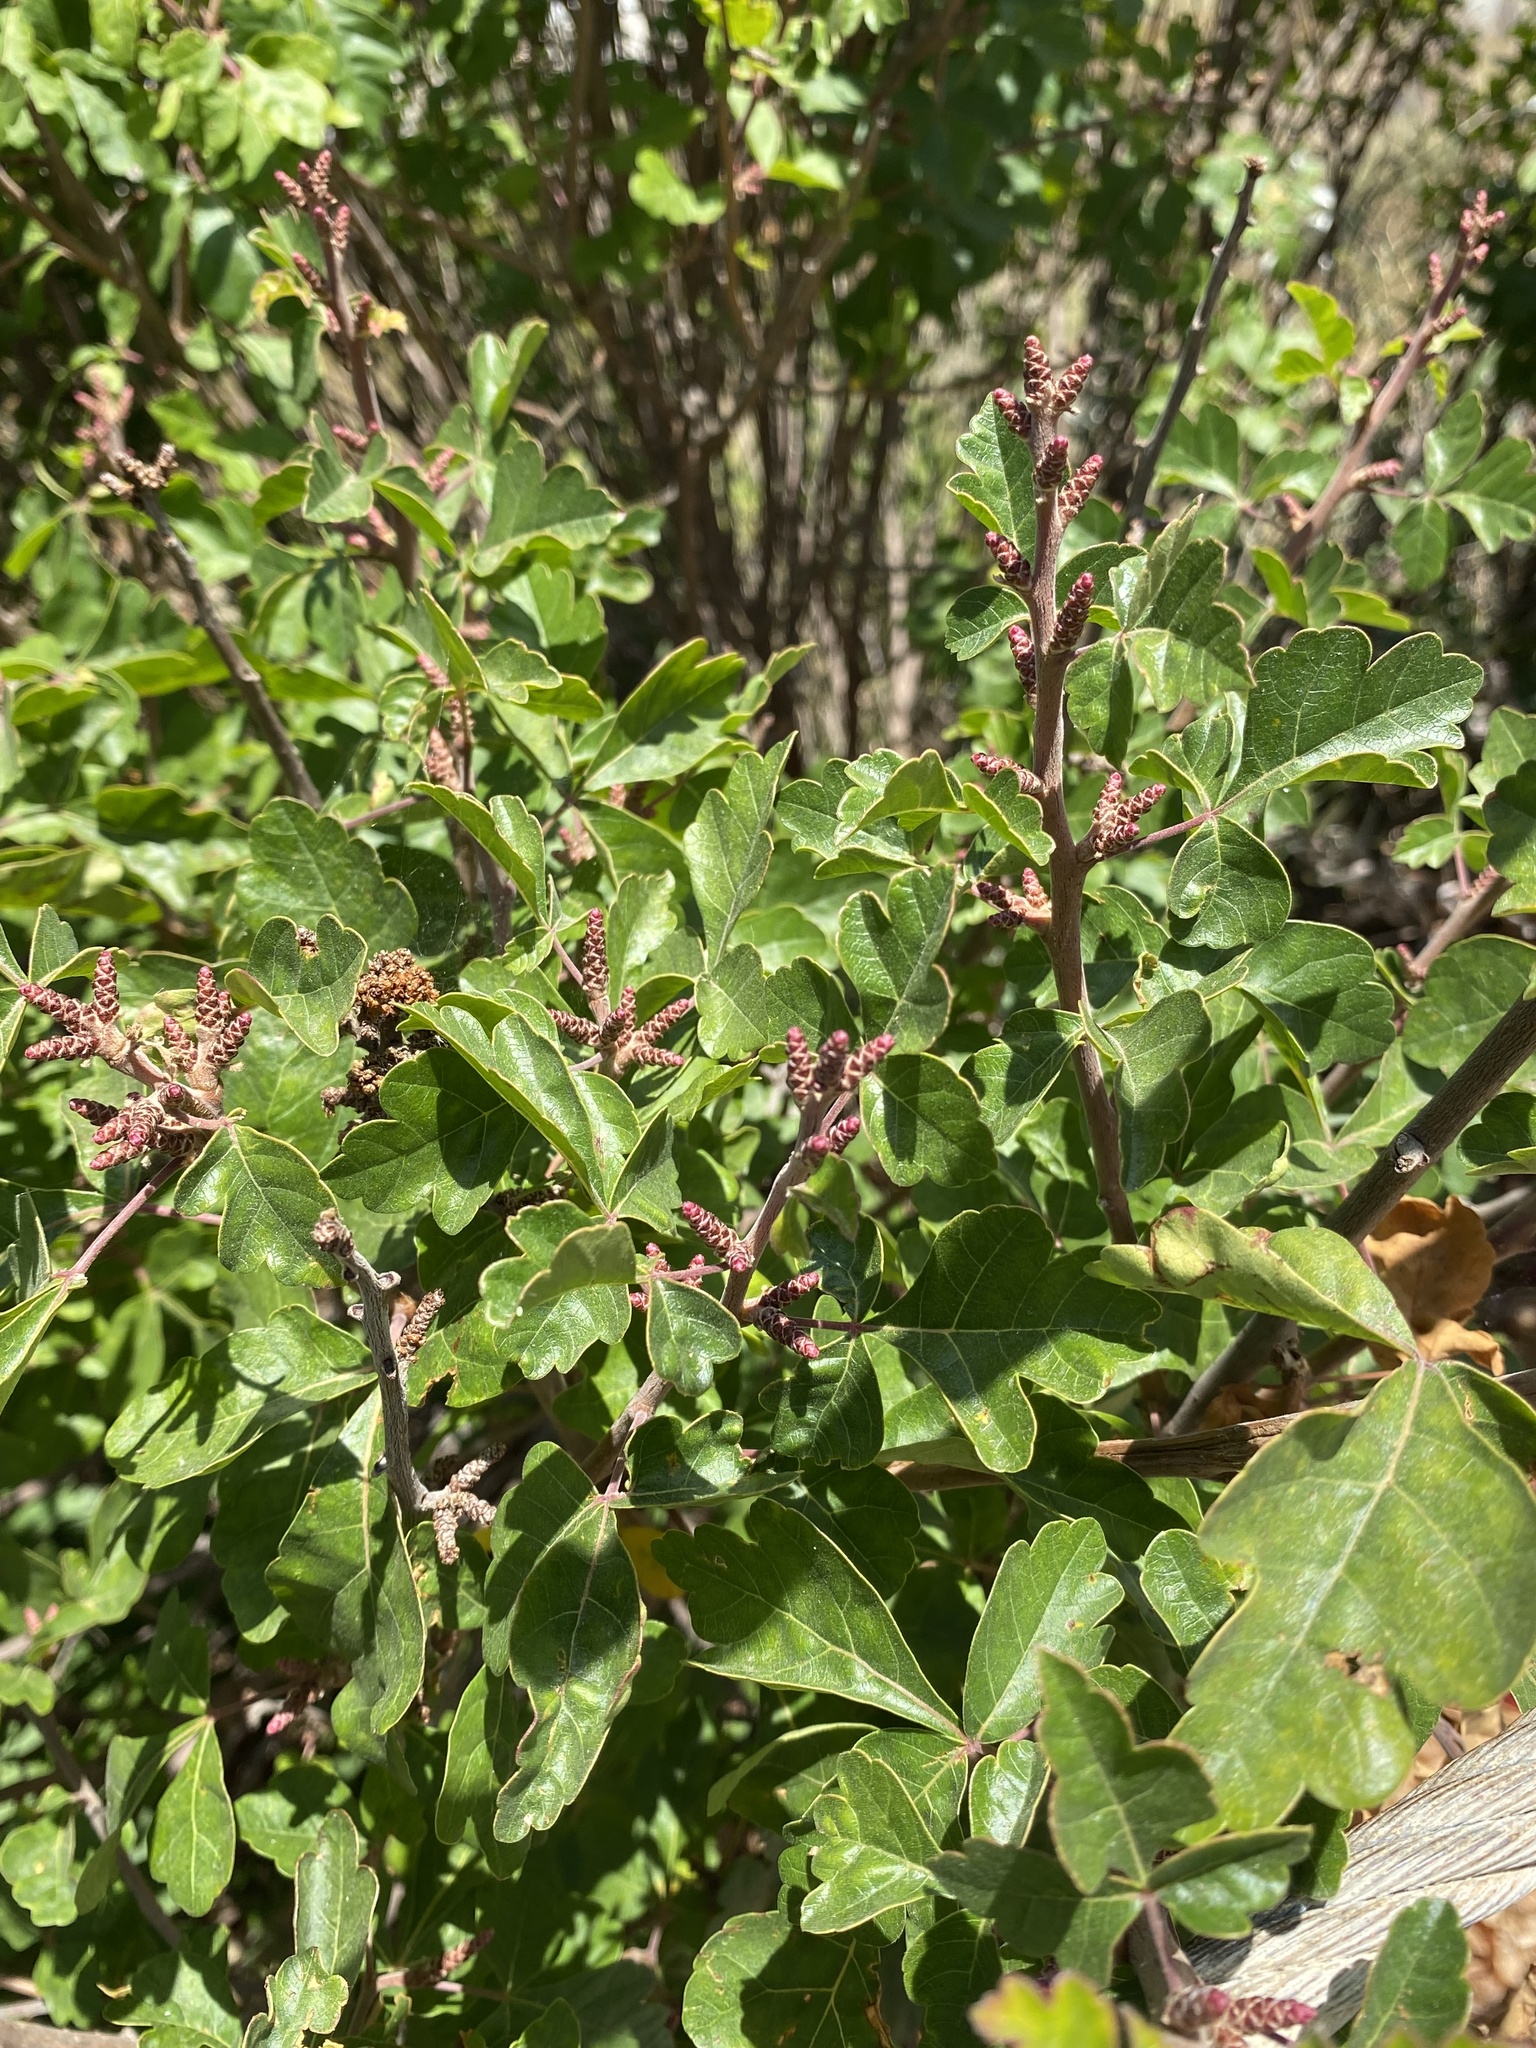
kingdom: Plantae
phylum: Tracheophyta
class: Magnoliopsida
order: Sapindales
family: Anacardiaceae
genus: Rhus
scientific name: Rhus aromatica
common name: Aromatic sumac
